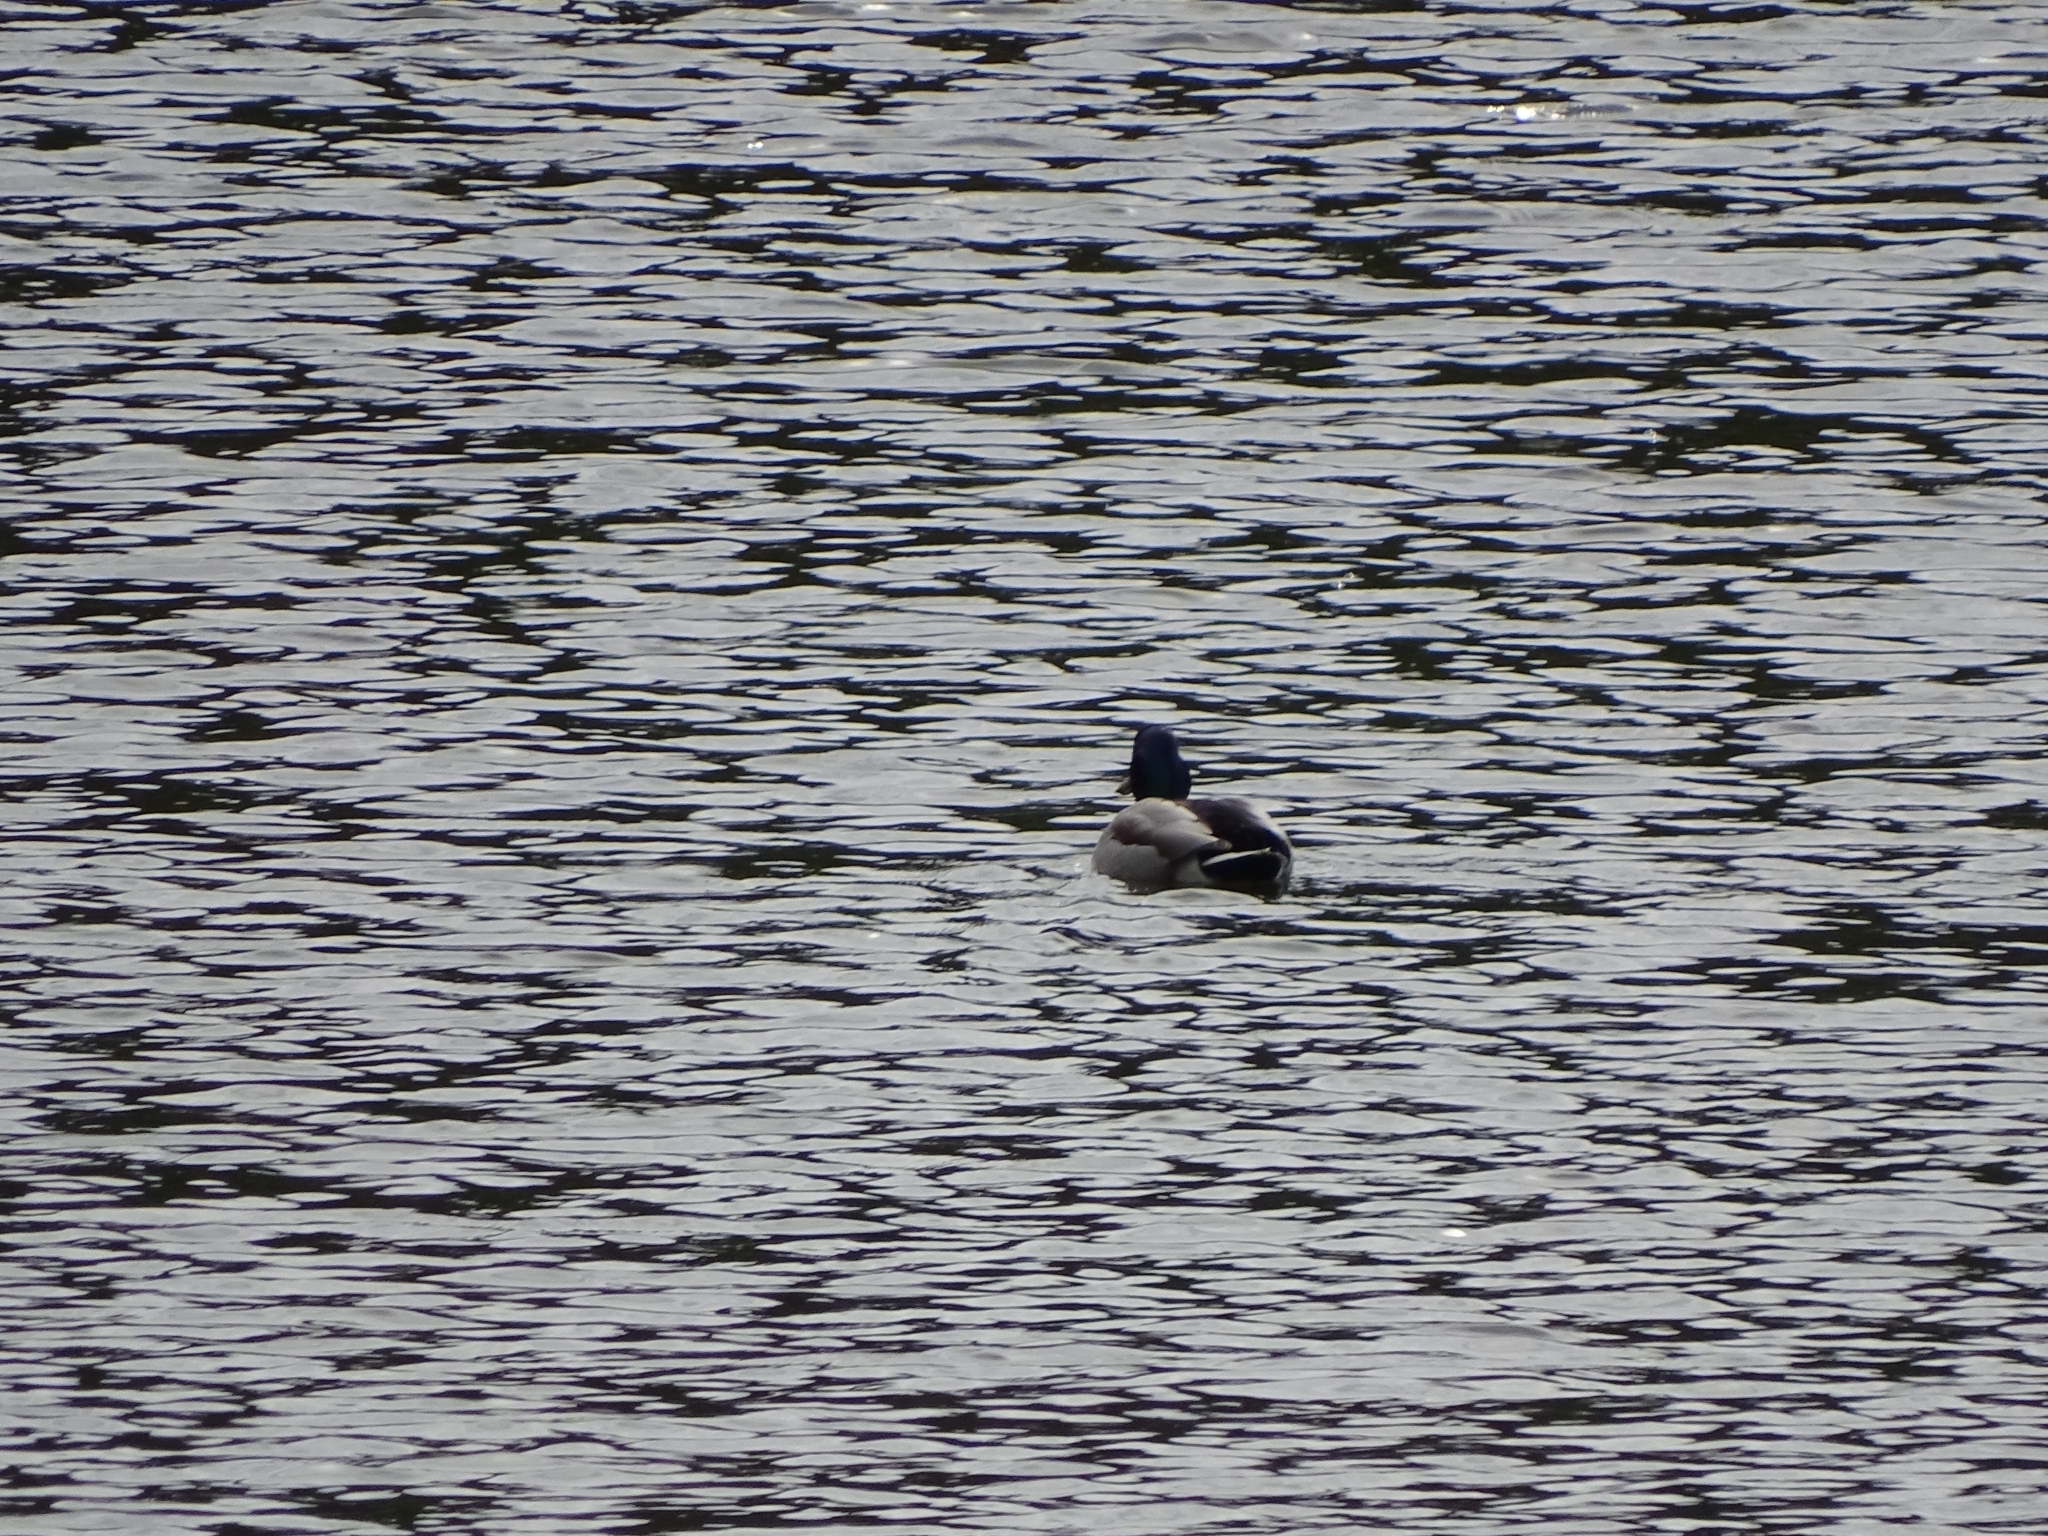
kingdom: Animalia
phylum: Chordata
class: Aves
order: Anseriformes
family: Anatidae
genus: Anas
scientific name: Anas platyrhynchos
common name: Mallard
